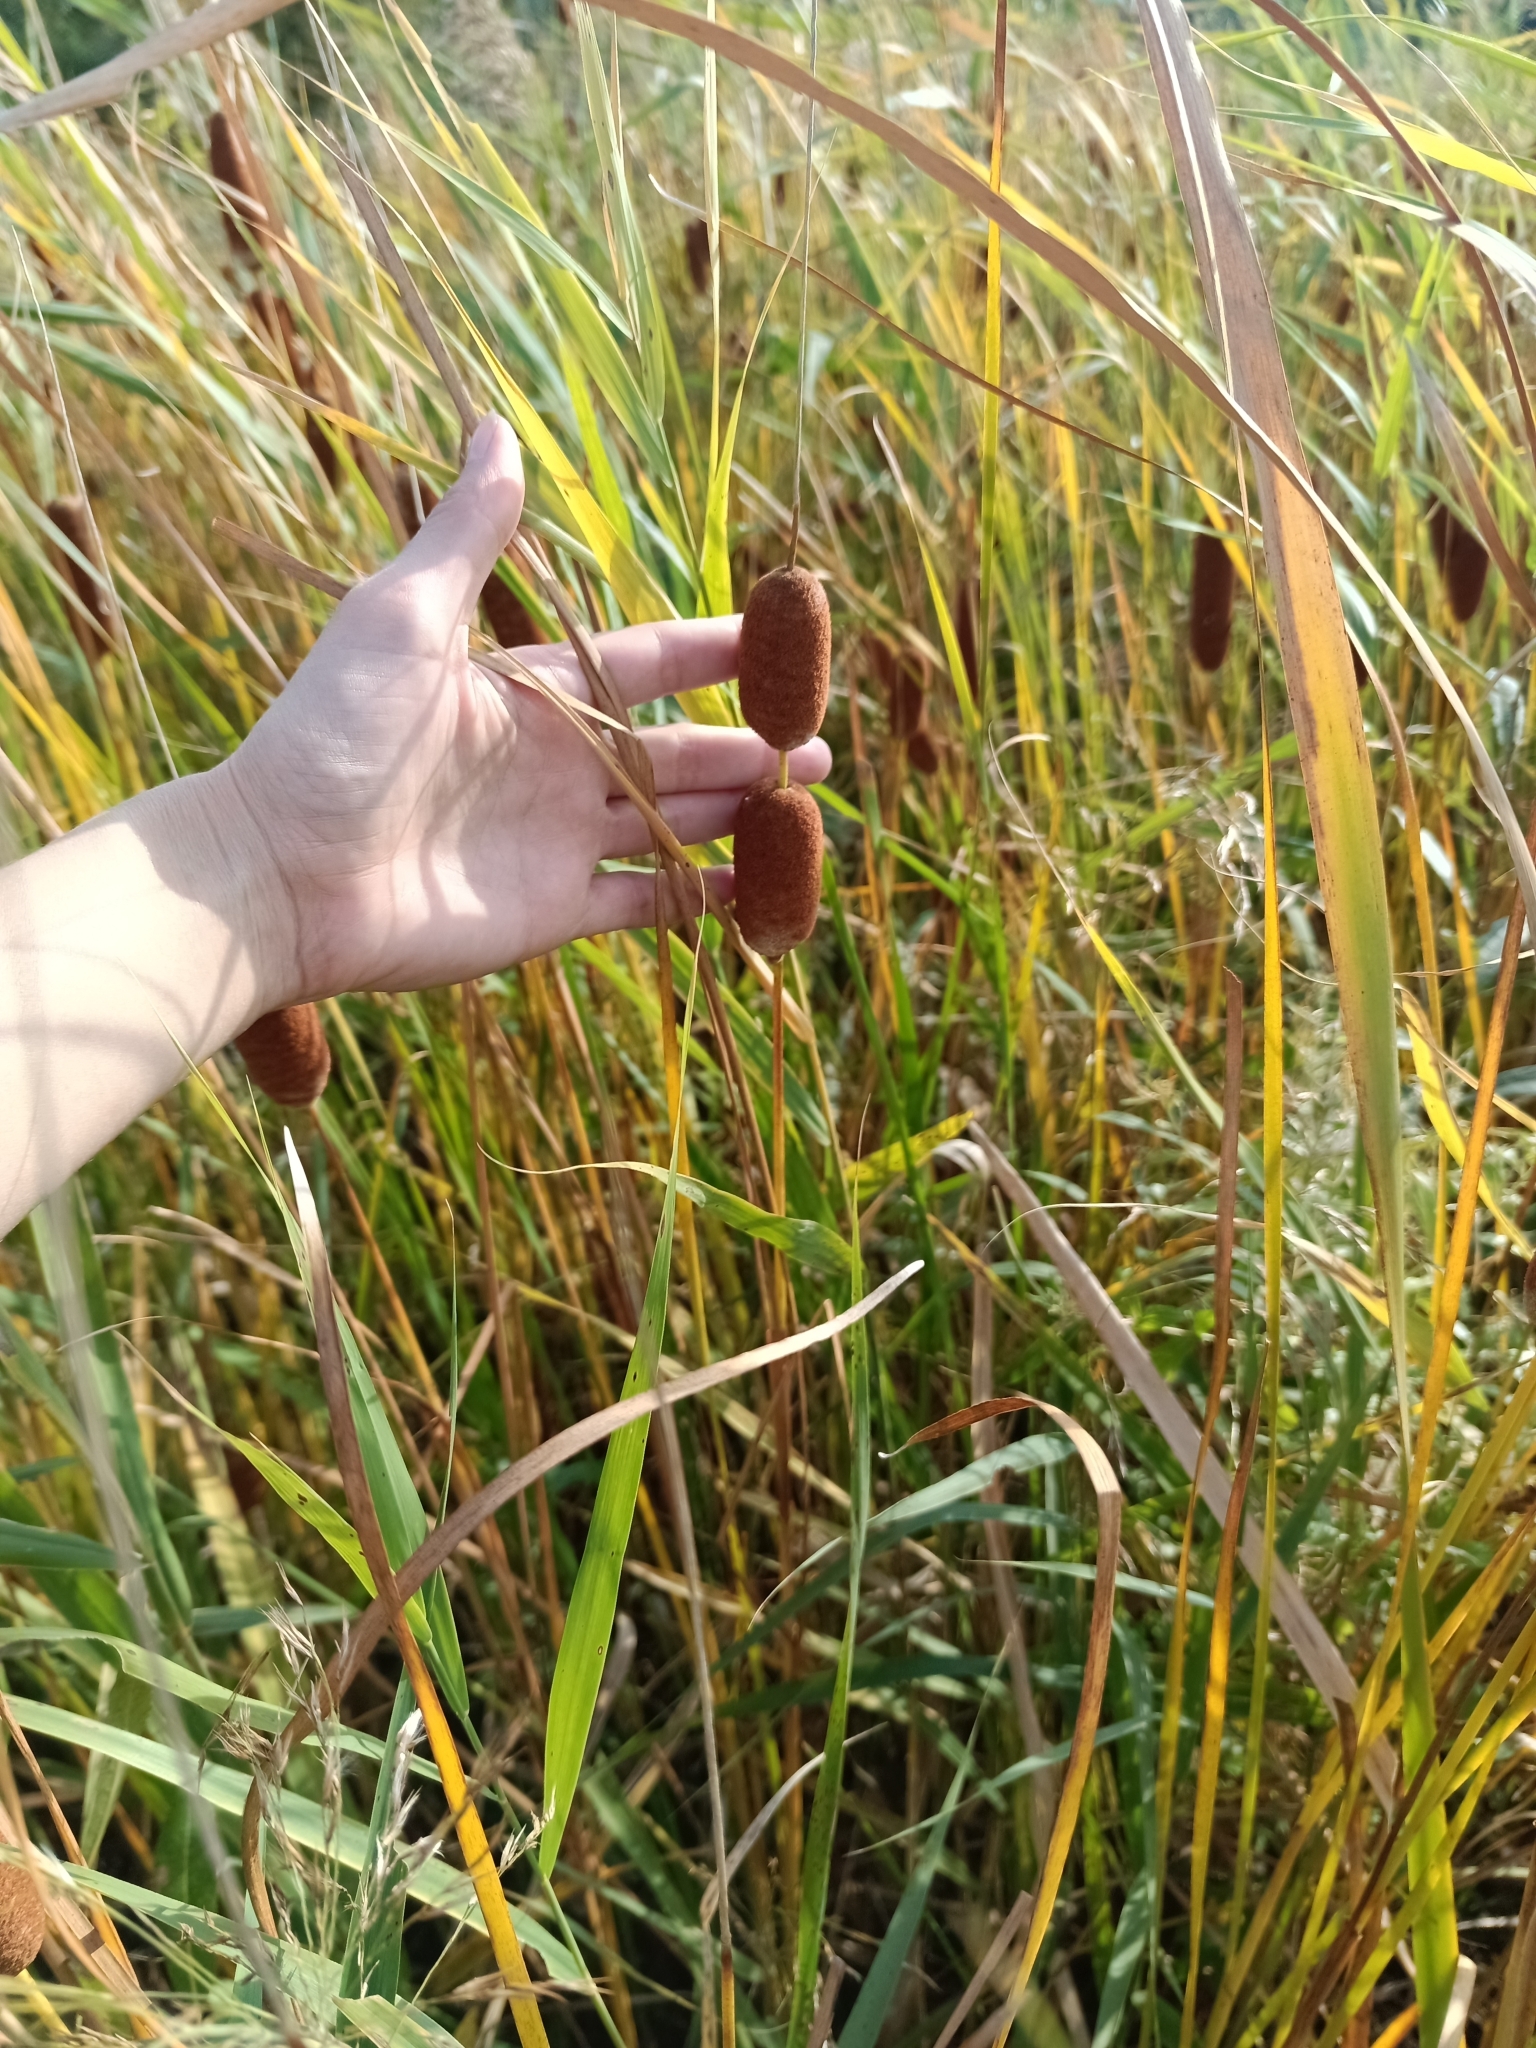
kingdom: Plantae
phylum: Tracheophyta
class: Liliopsida
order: Poales
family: Typhaceae
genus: Typha
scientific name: Typha laxmannii
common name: Laxman’s bulrush
